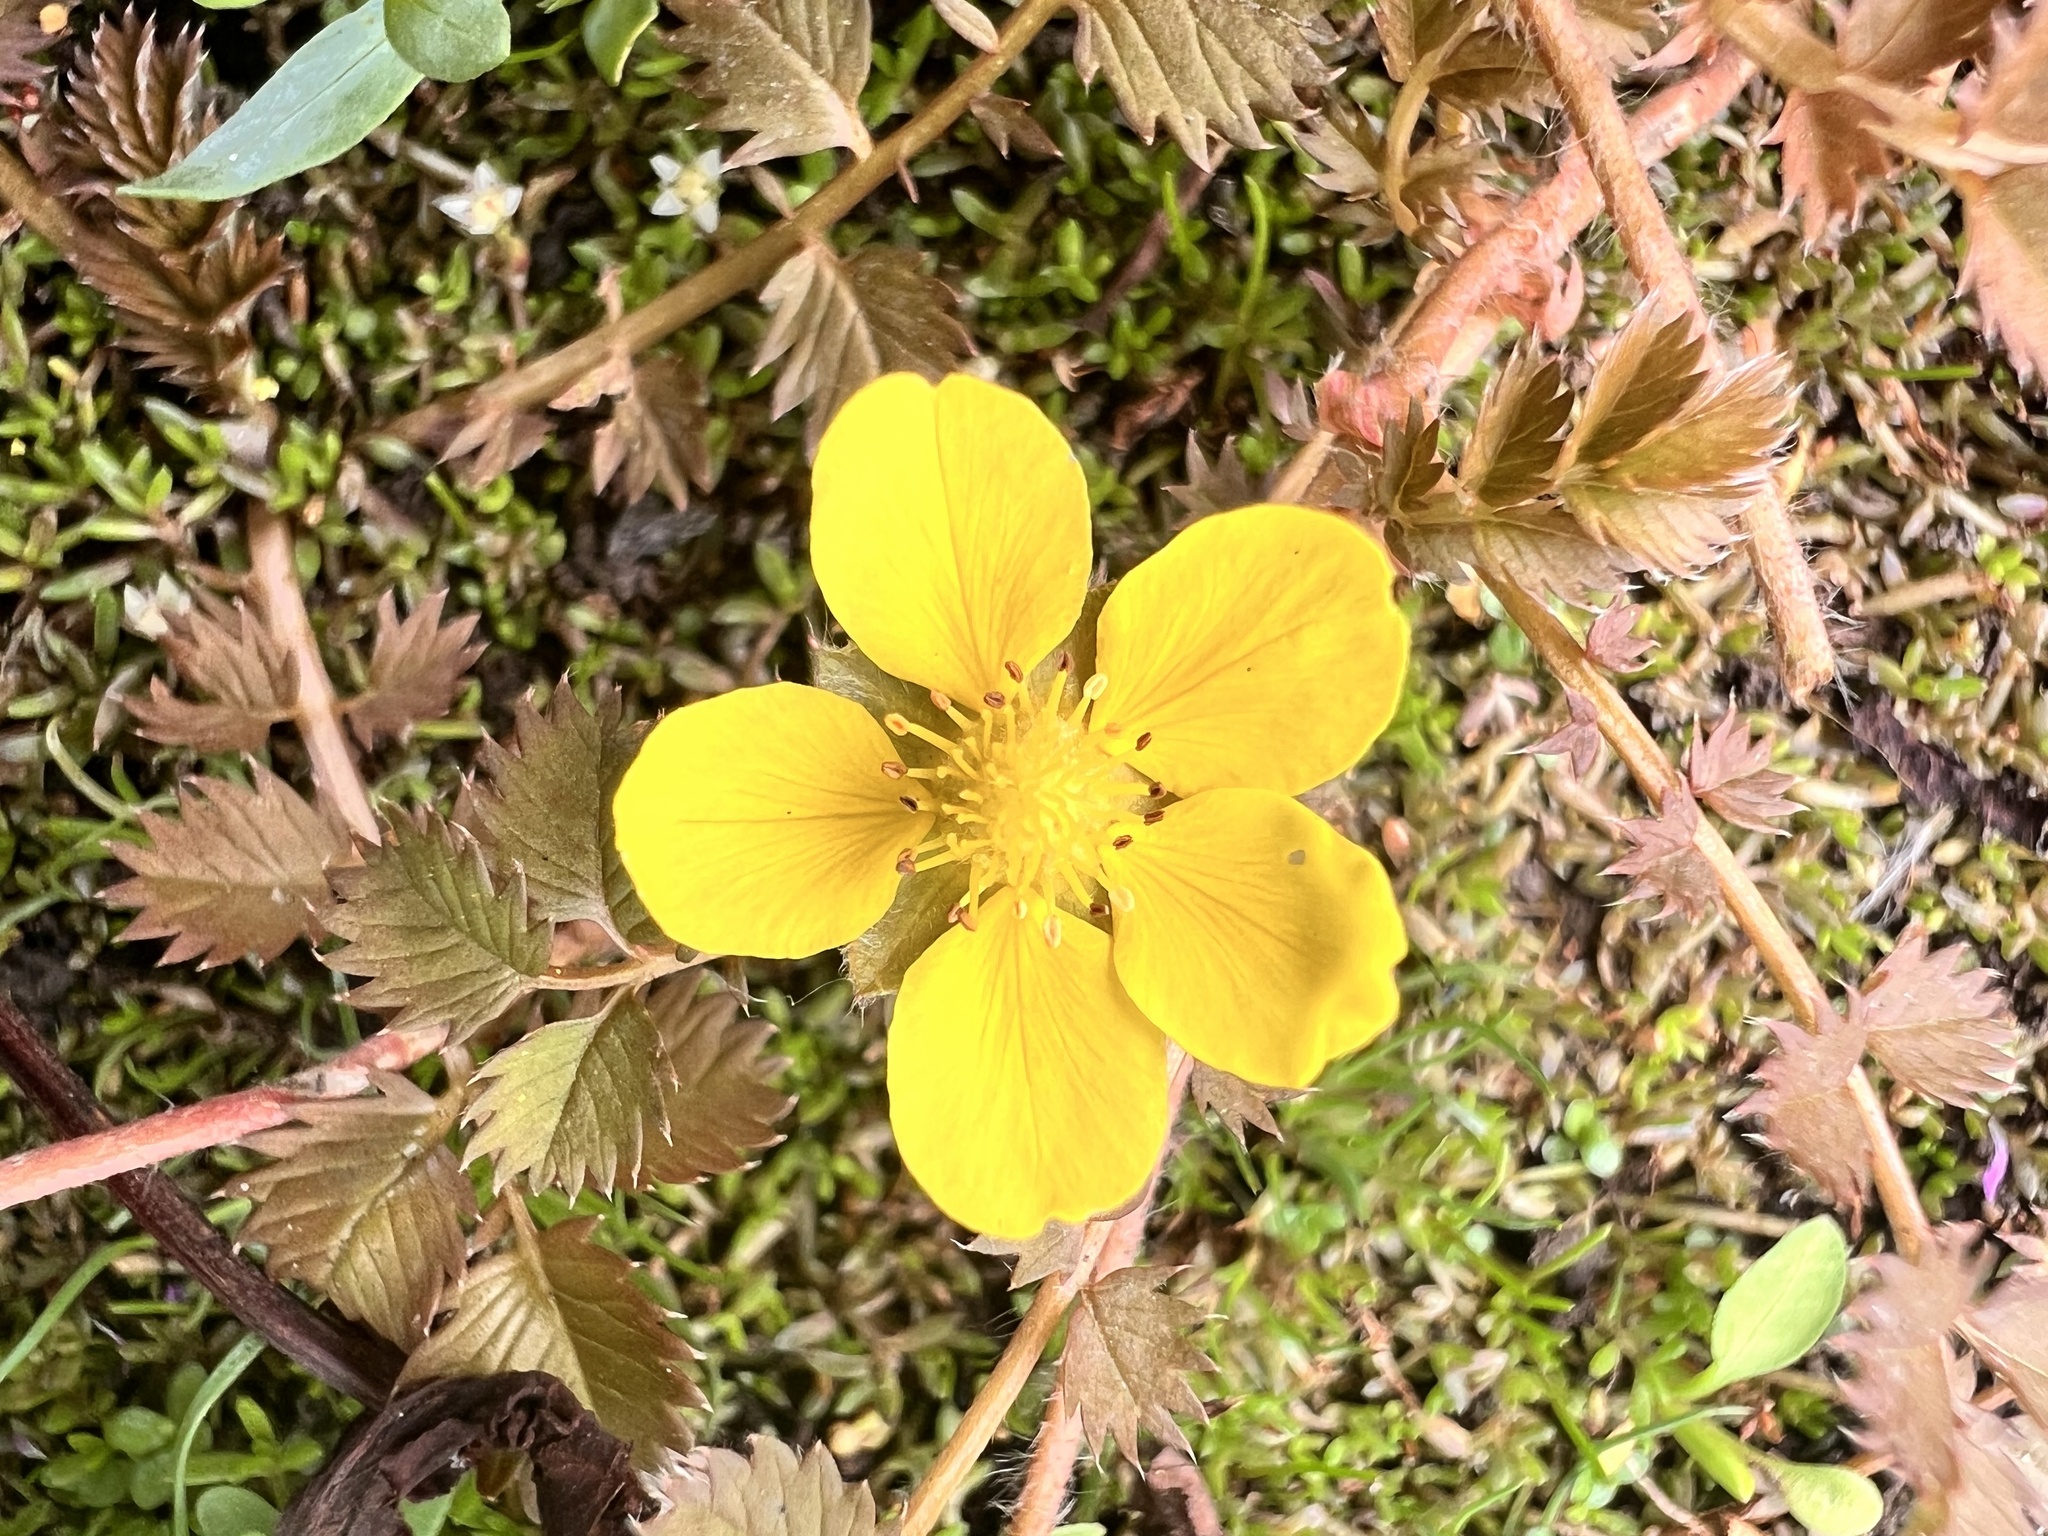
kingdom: Plantae
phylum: Tracheophyta
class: Magnoliopsida
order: Rosales
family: Rosaceae
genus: Argentina
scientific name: Argentina anserinoides
